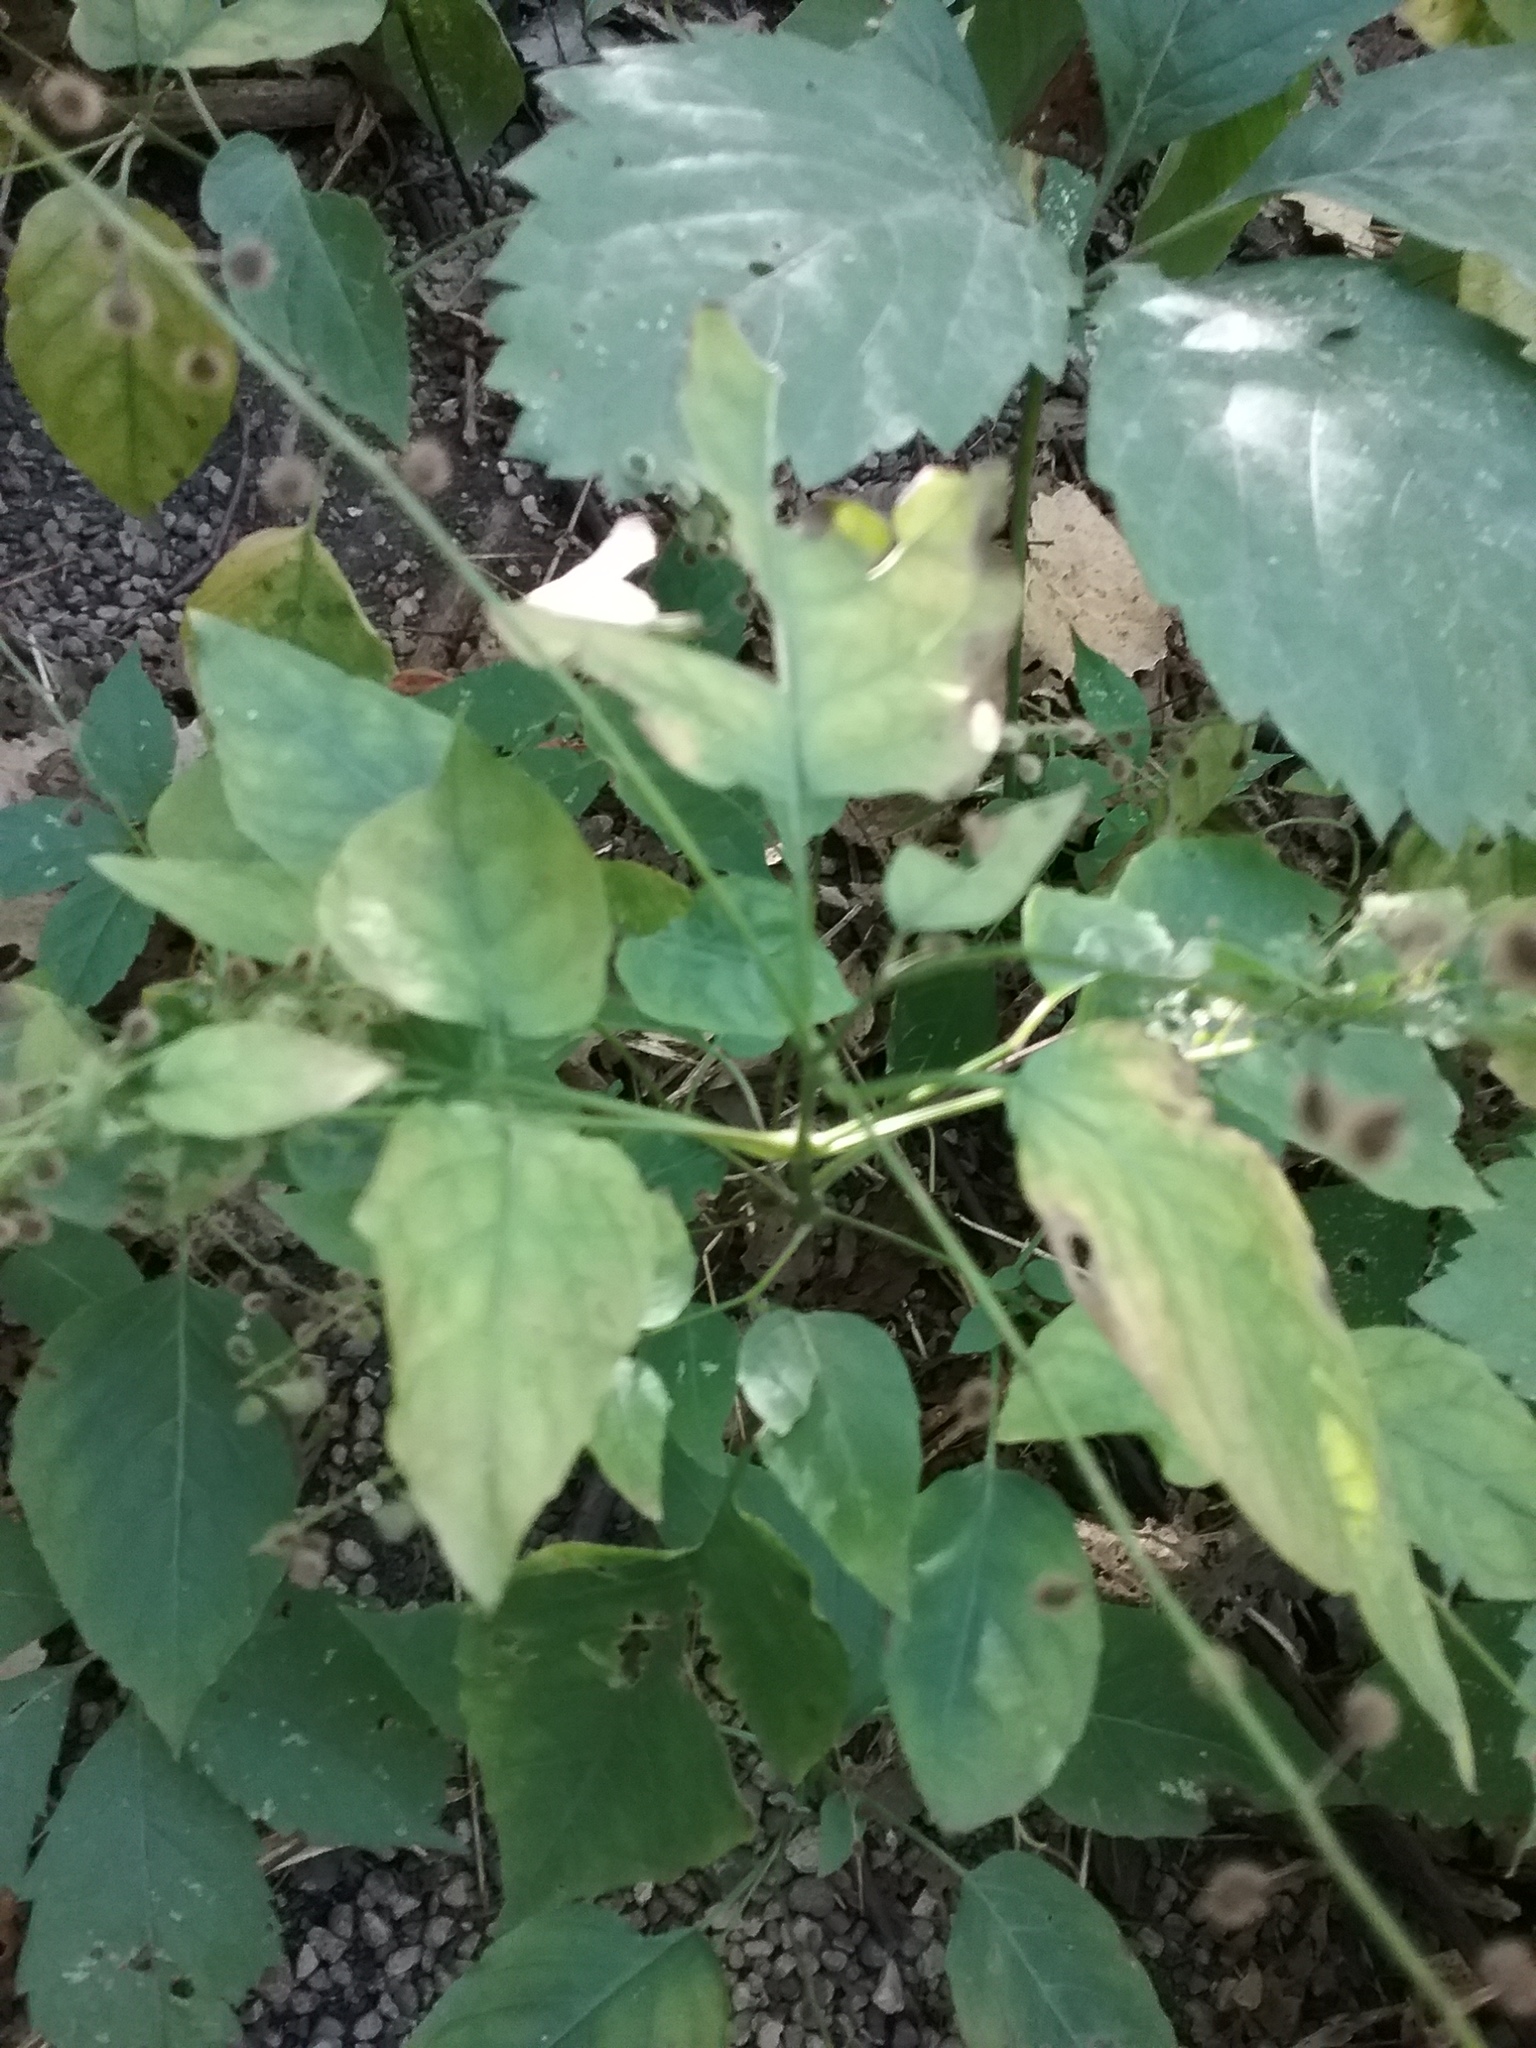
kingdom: Plantae
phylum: Tracheophyta
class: Magnoliopsida
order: Myrtales
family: Onagraceae
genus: Circaea
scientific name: Circaea canadensis
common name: Broad-leaved enchanter's nightshade
